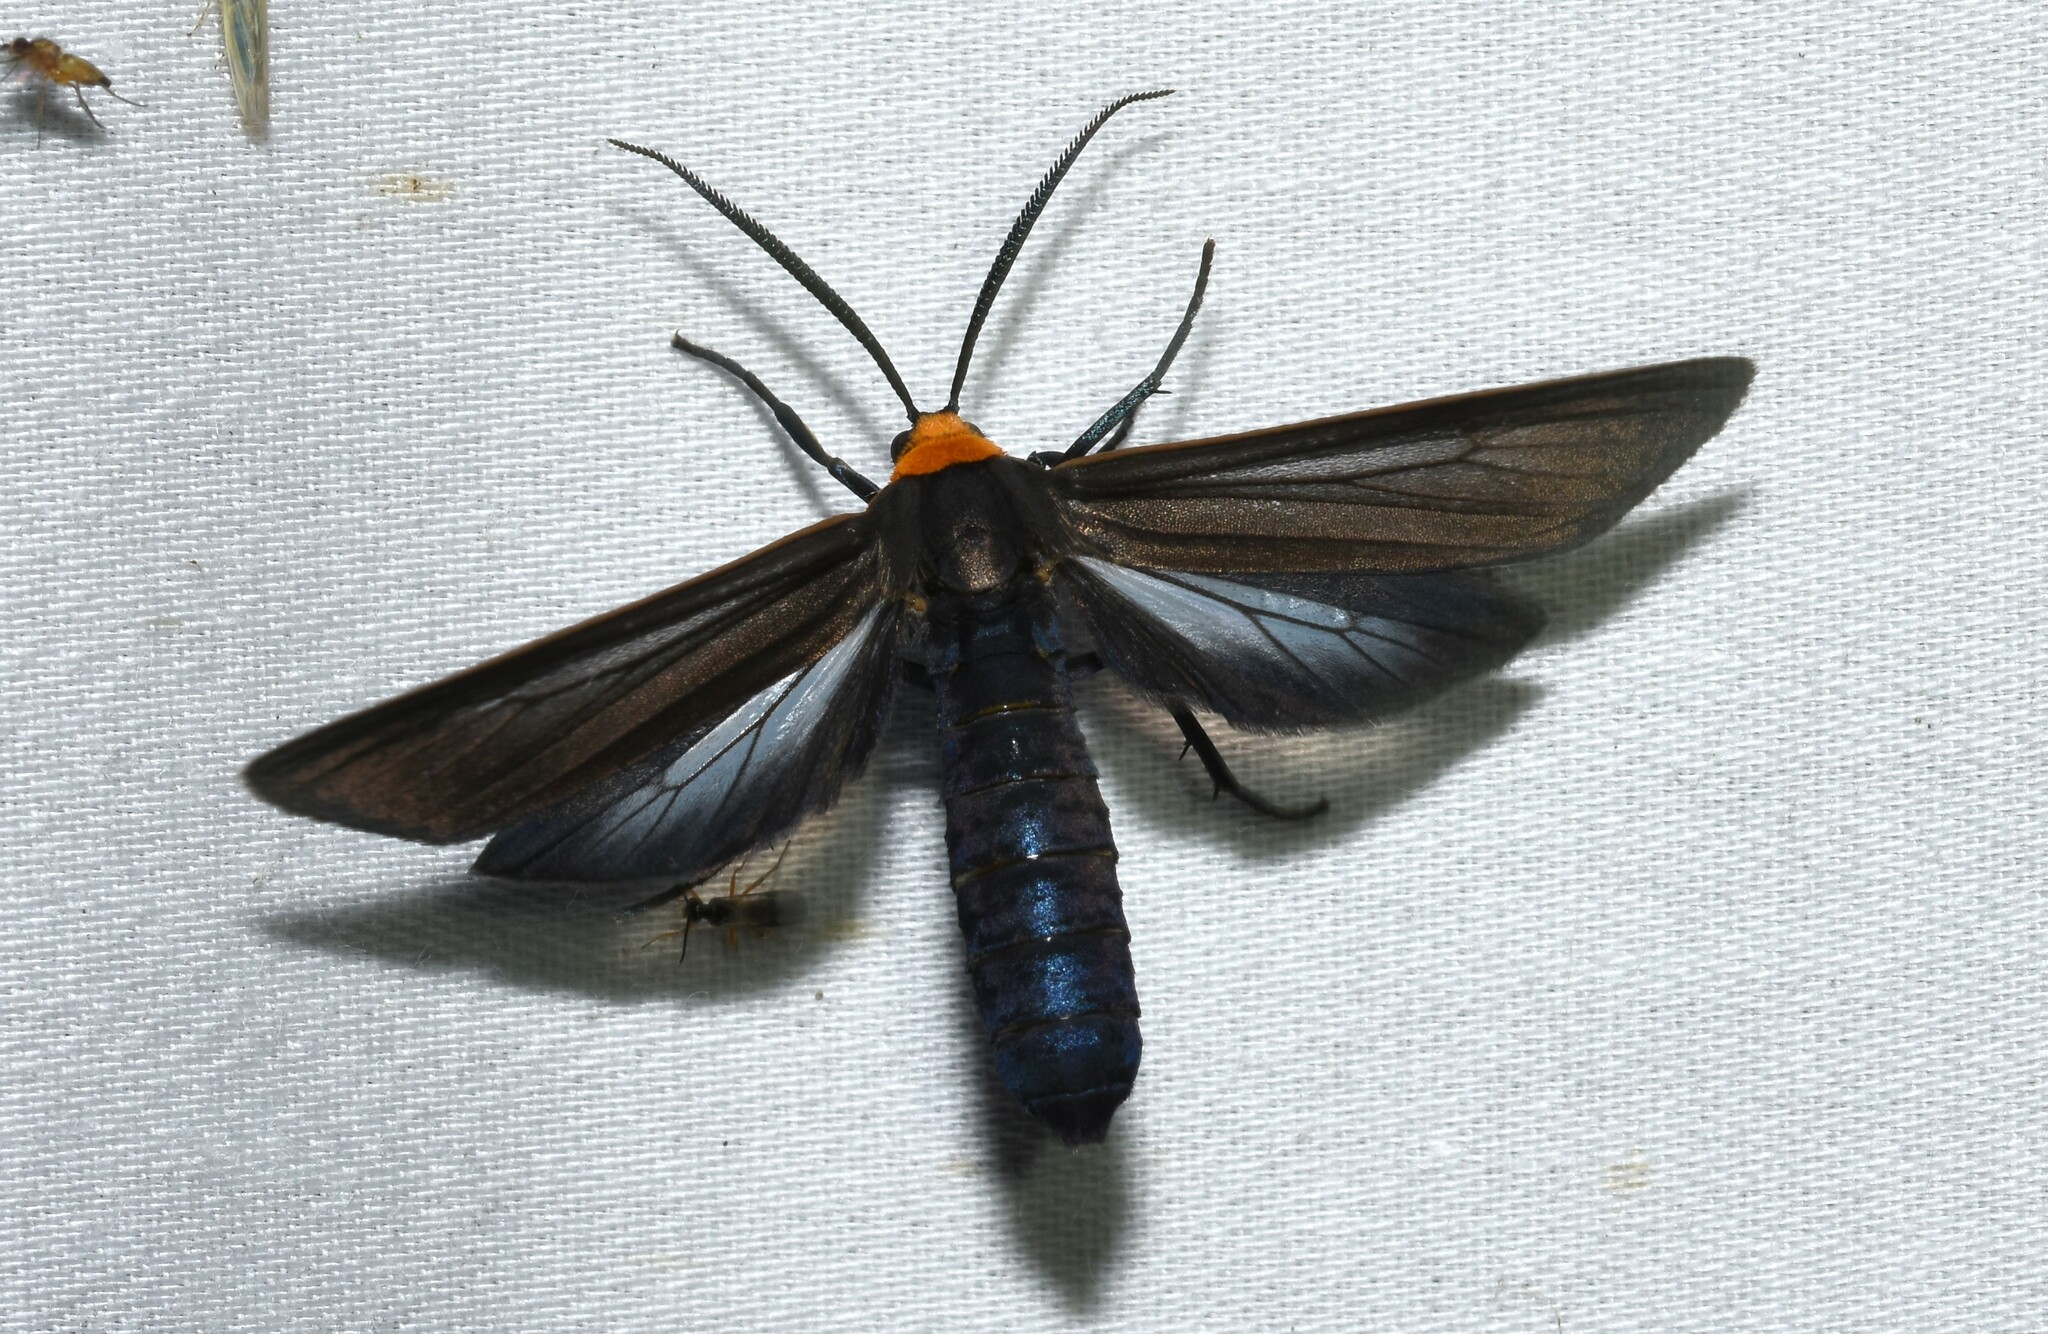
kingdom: Animalia
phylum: Arthropoda
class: Insecta
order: Lepidoptera
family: Erebidae
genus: Cisseps
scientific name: Cisseps fulvicollis
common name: Yellow-collared scape moth
